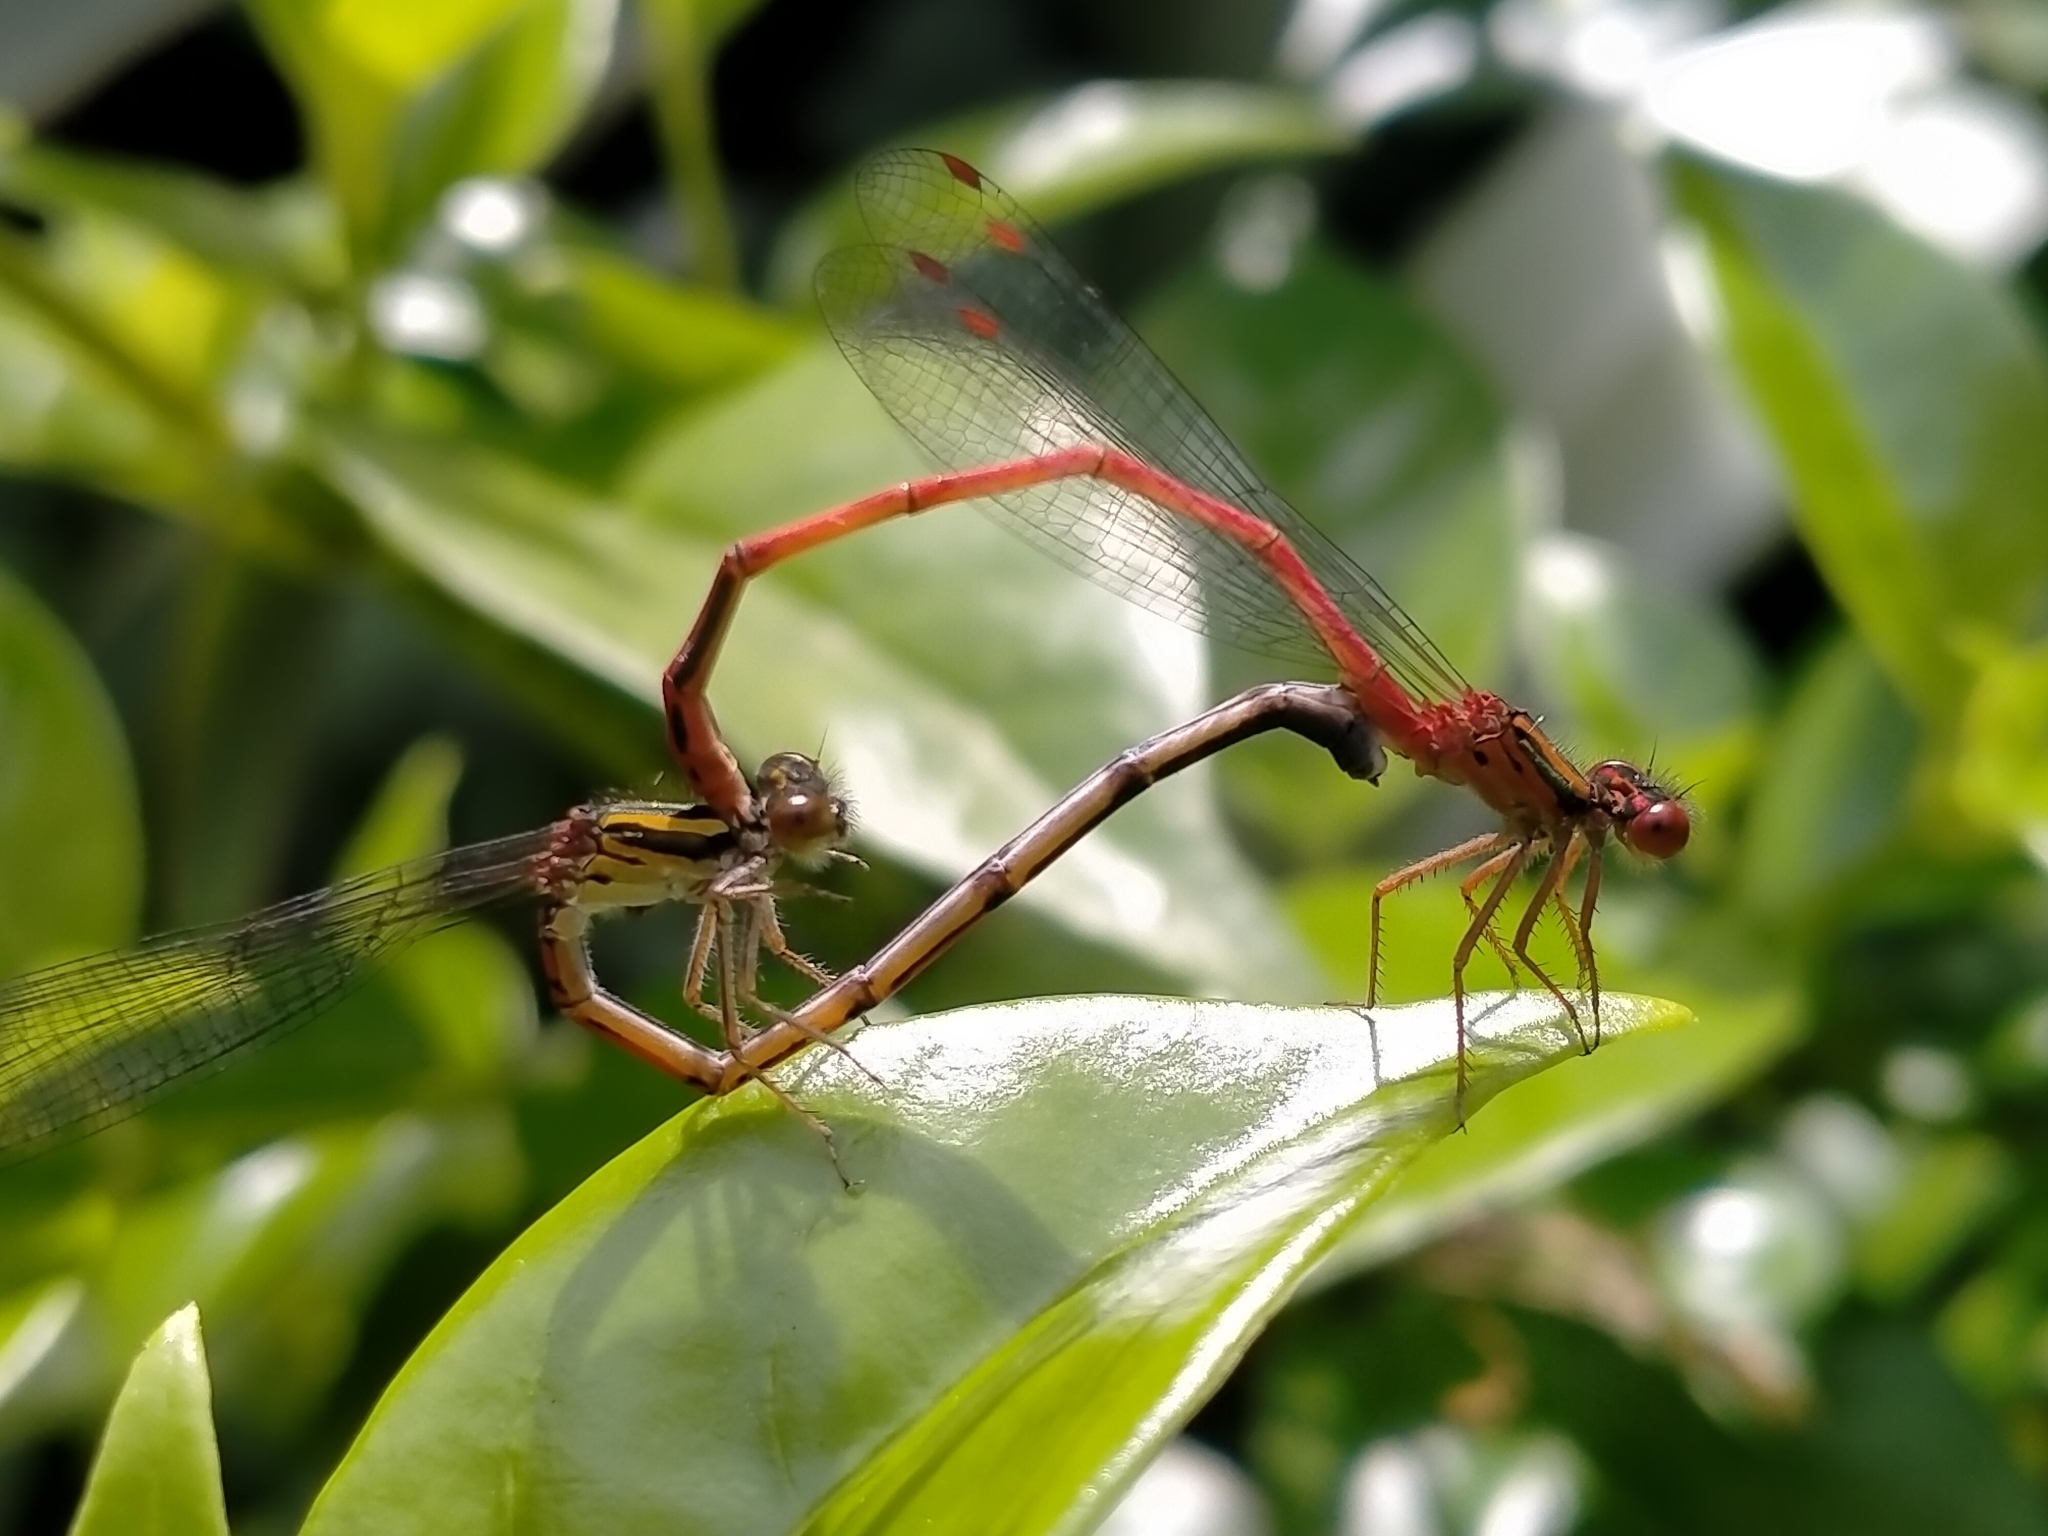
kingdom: Animalia
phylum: Arthropoda
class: Insecta
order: Odonata
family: Coenagrionidae
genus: Xanthocnemis
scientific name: Xanthocnemis zealandica
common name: Common redcoat damselfly
